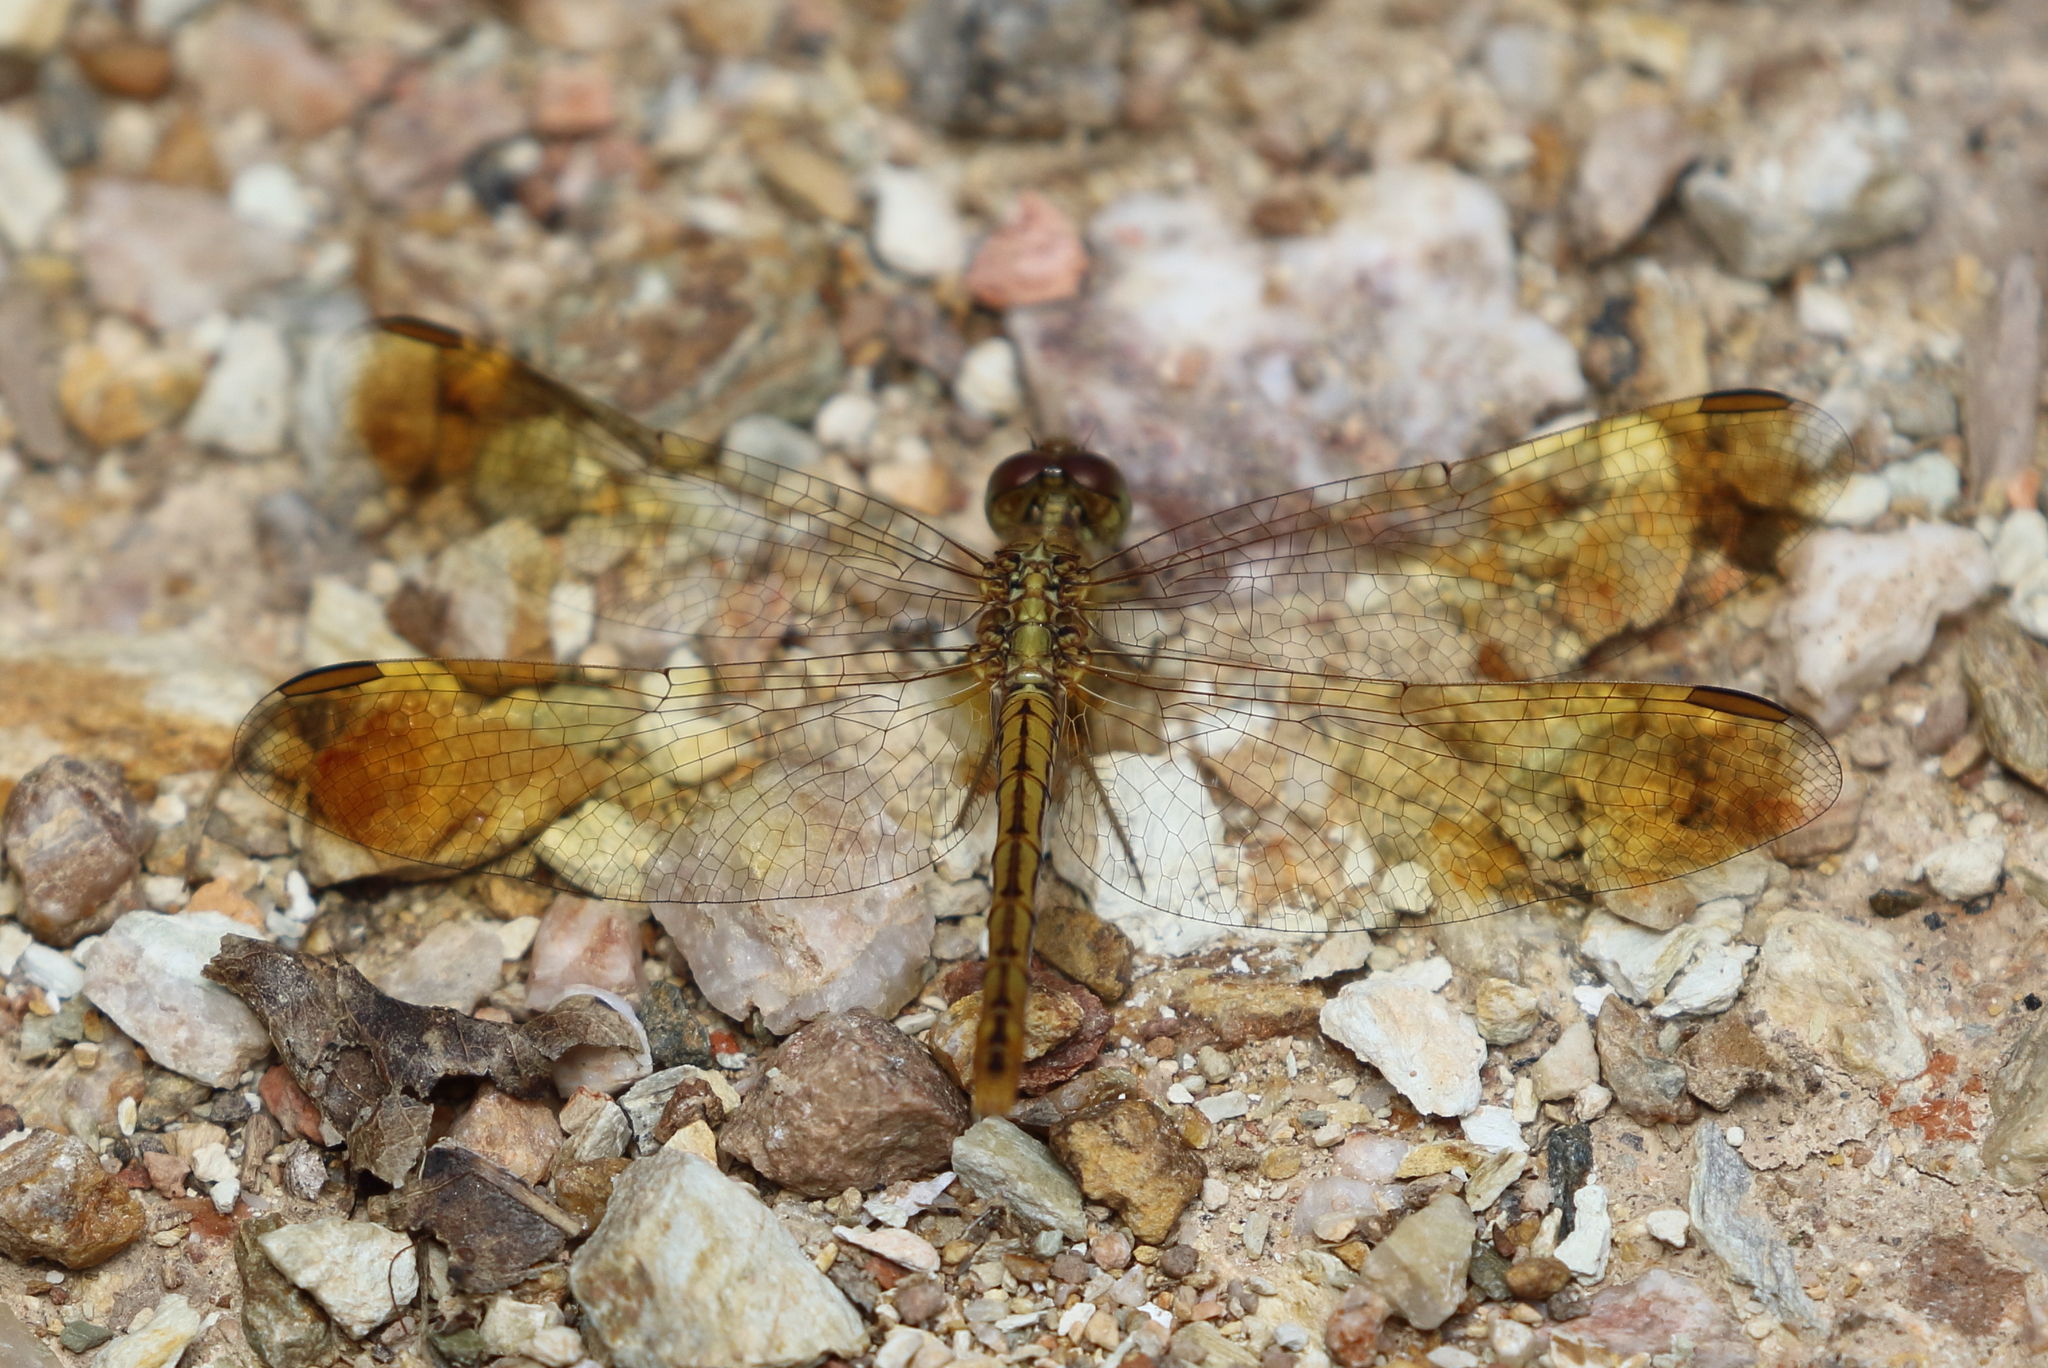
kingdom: Animalia
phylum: Arthropoda
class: Insecta
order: Odonata
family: Libellulidae
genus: Diplacodes
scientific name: Diplacodes haematodes
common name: Scarlet percher
